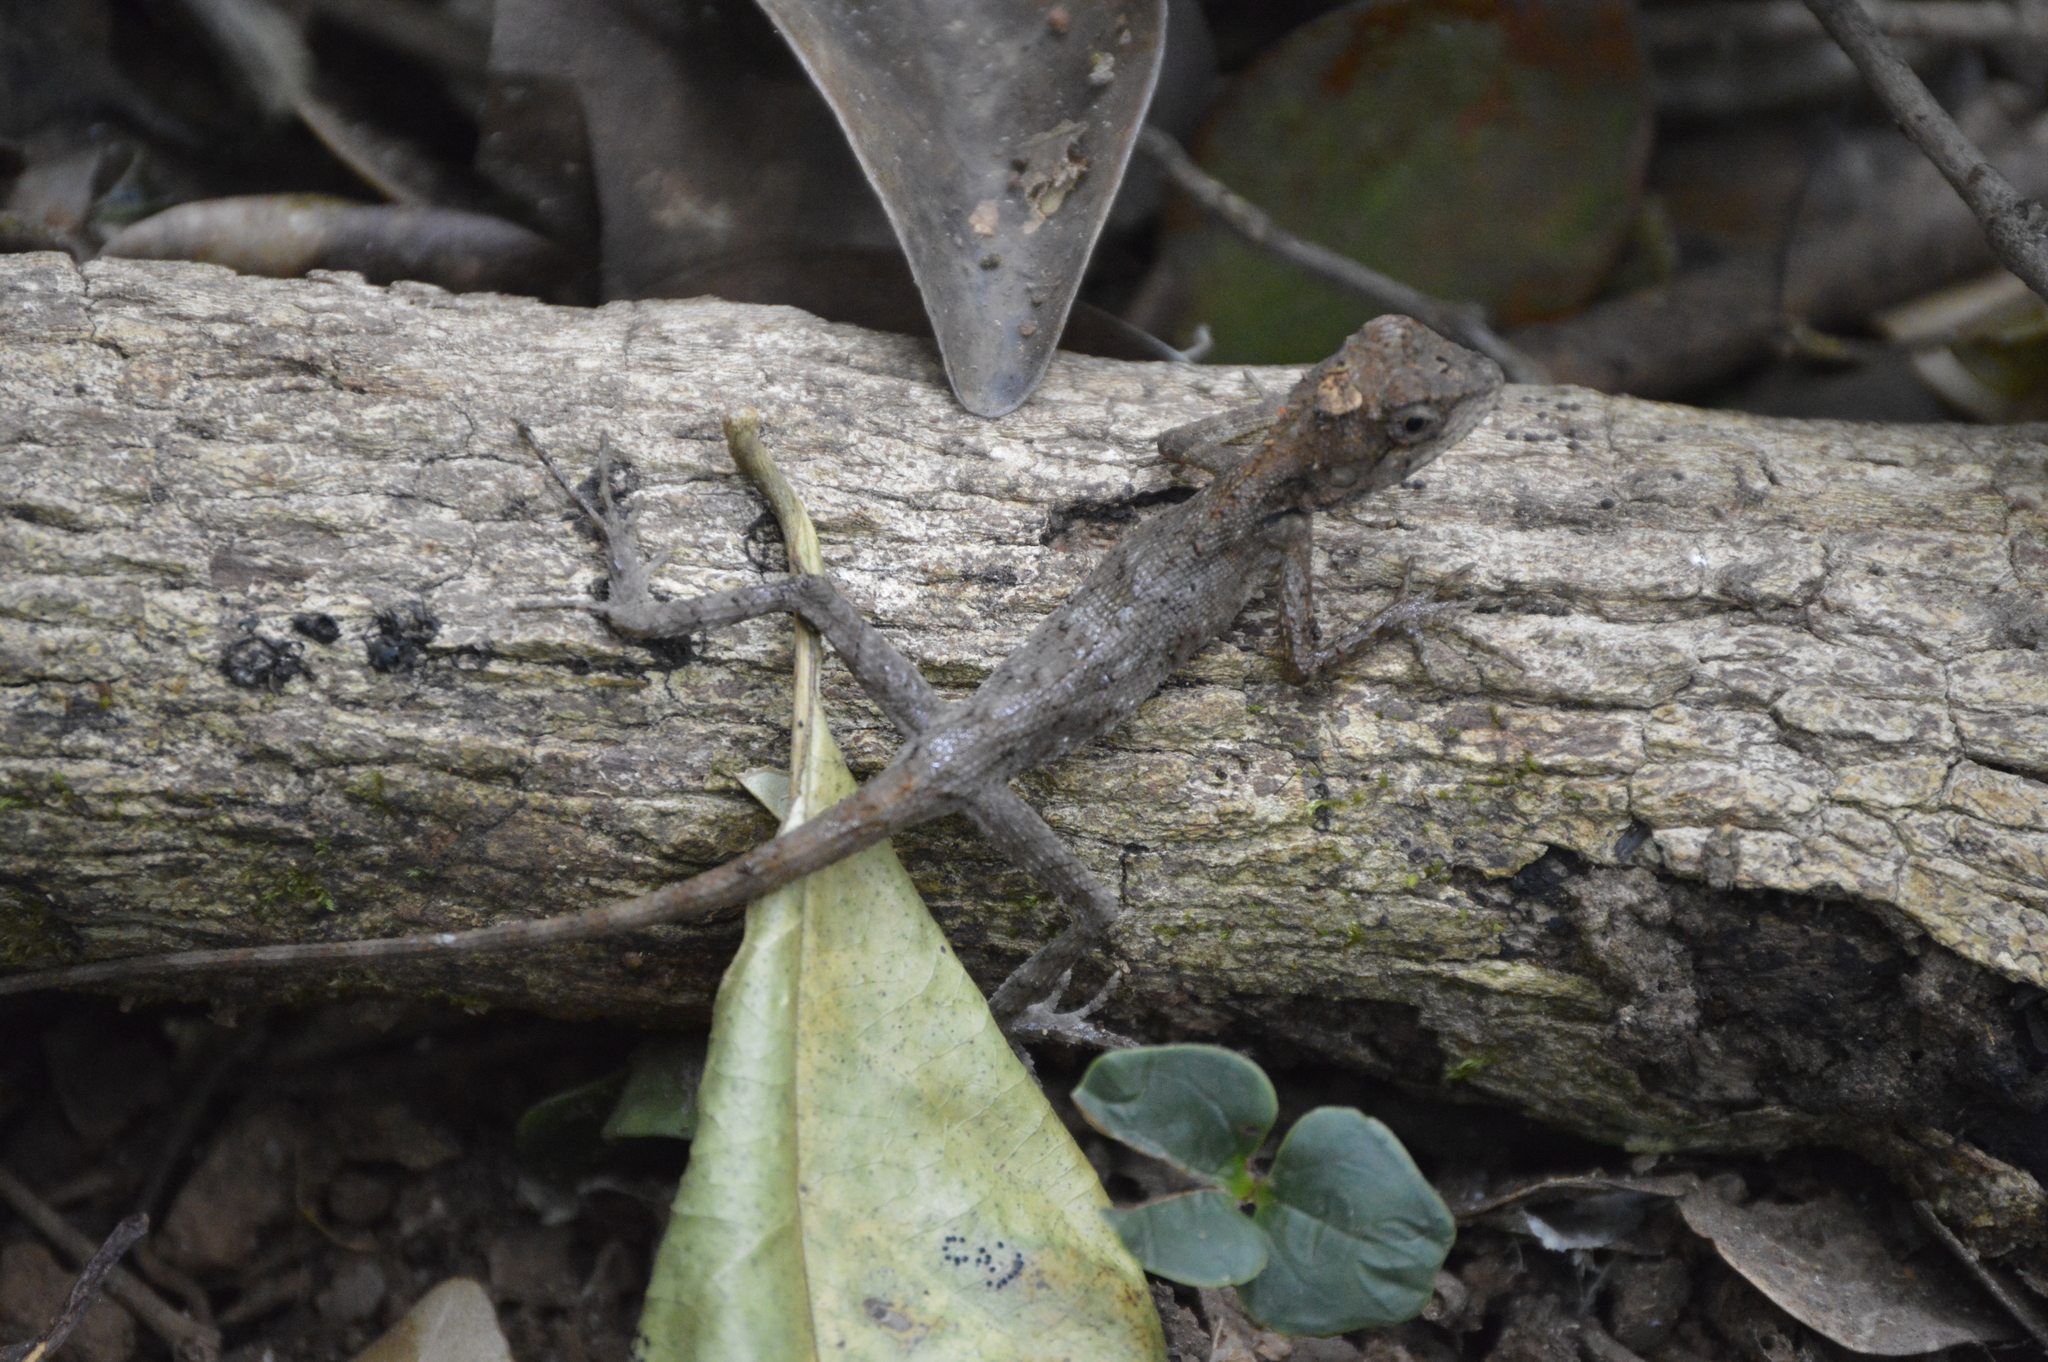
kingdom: Animalia
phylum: Chordata
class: Squamata
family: Agamidae
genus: Monilesaurus
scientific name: Monilesaurus rouxii
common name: Roux's forest lizard
